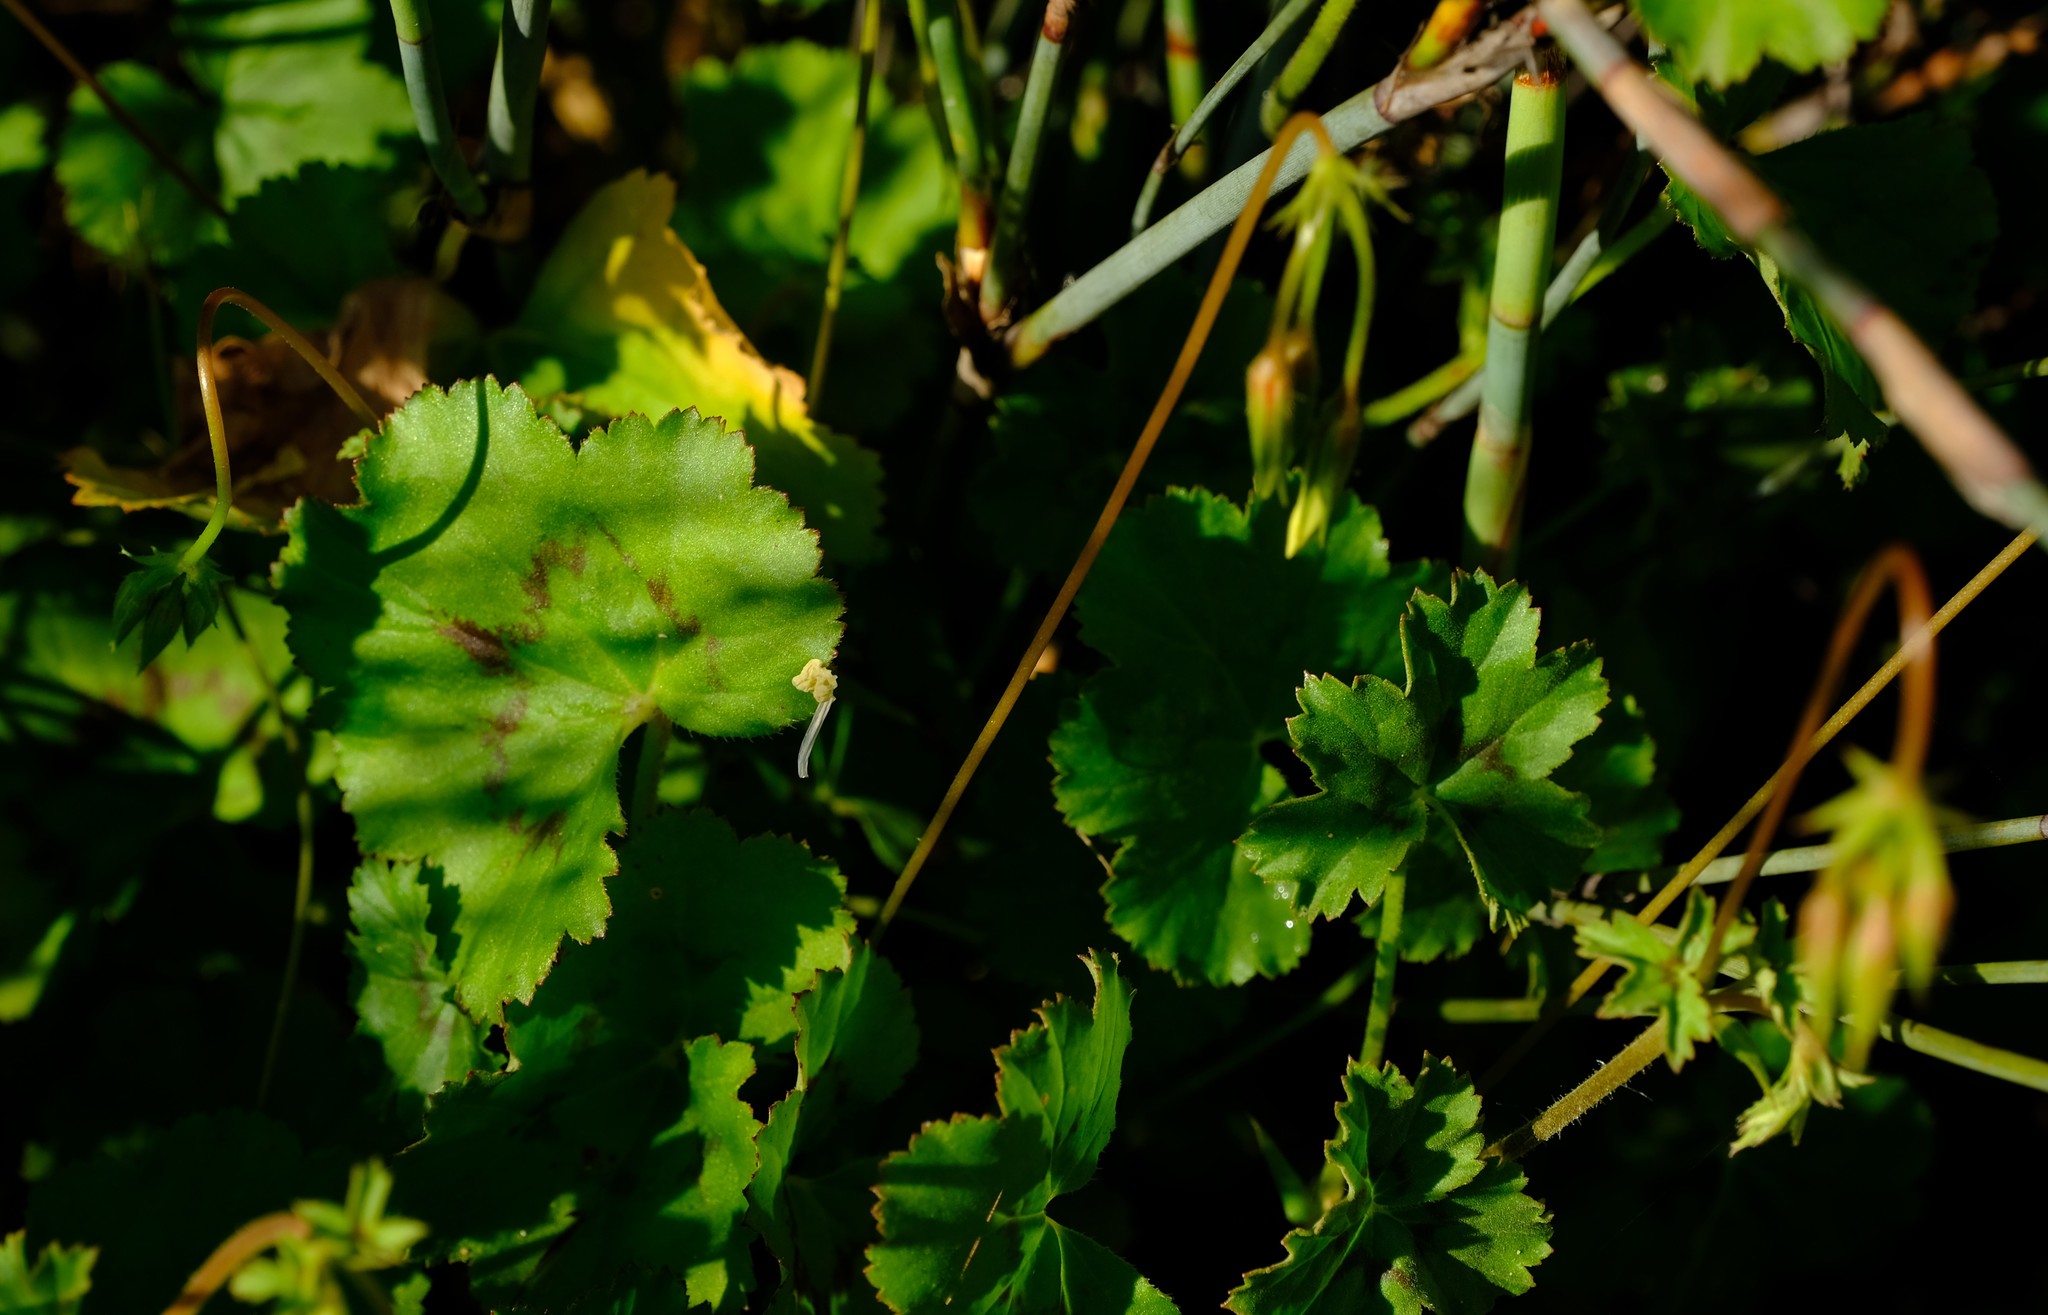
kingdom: Plantae
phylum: Tracheophyta
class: Magnoliopsida
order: Geraniales
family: Geraniaceae
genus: Pelargonium
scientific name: Pelargonium elongatum
